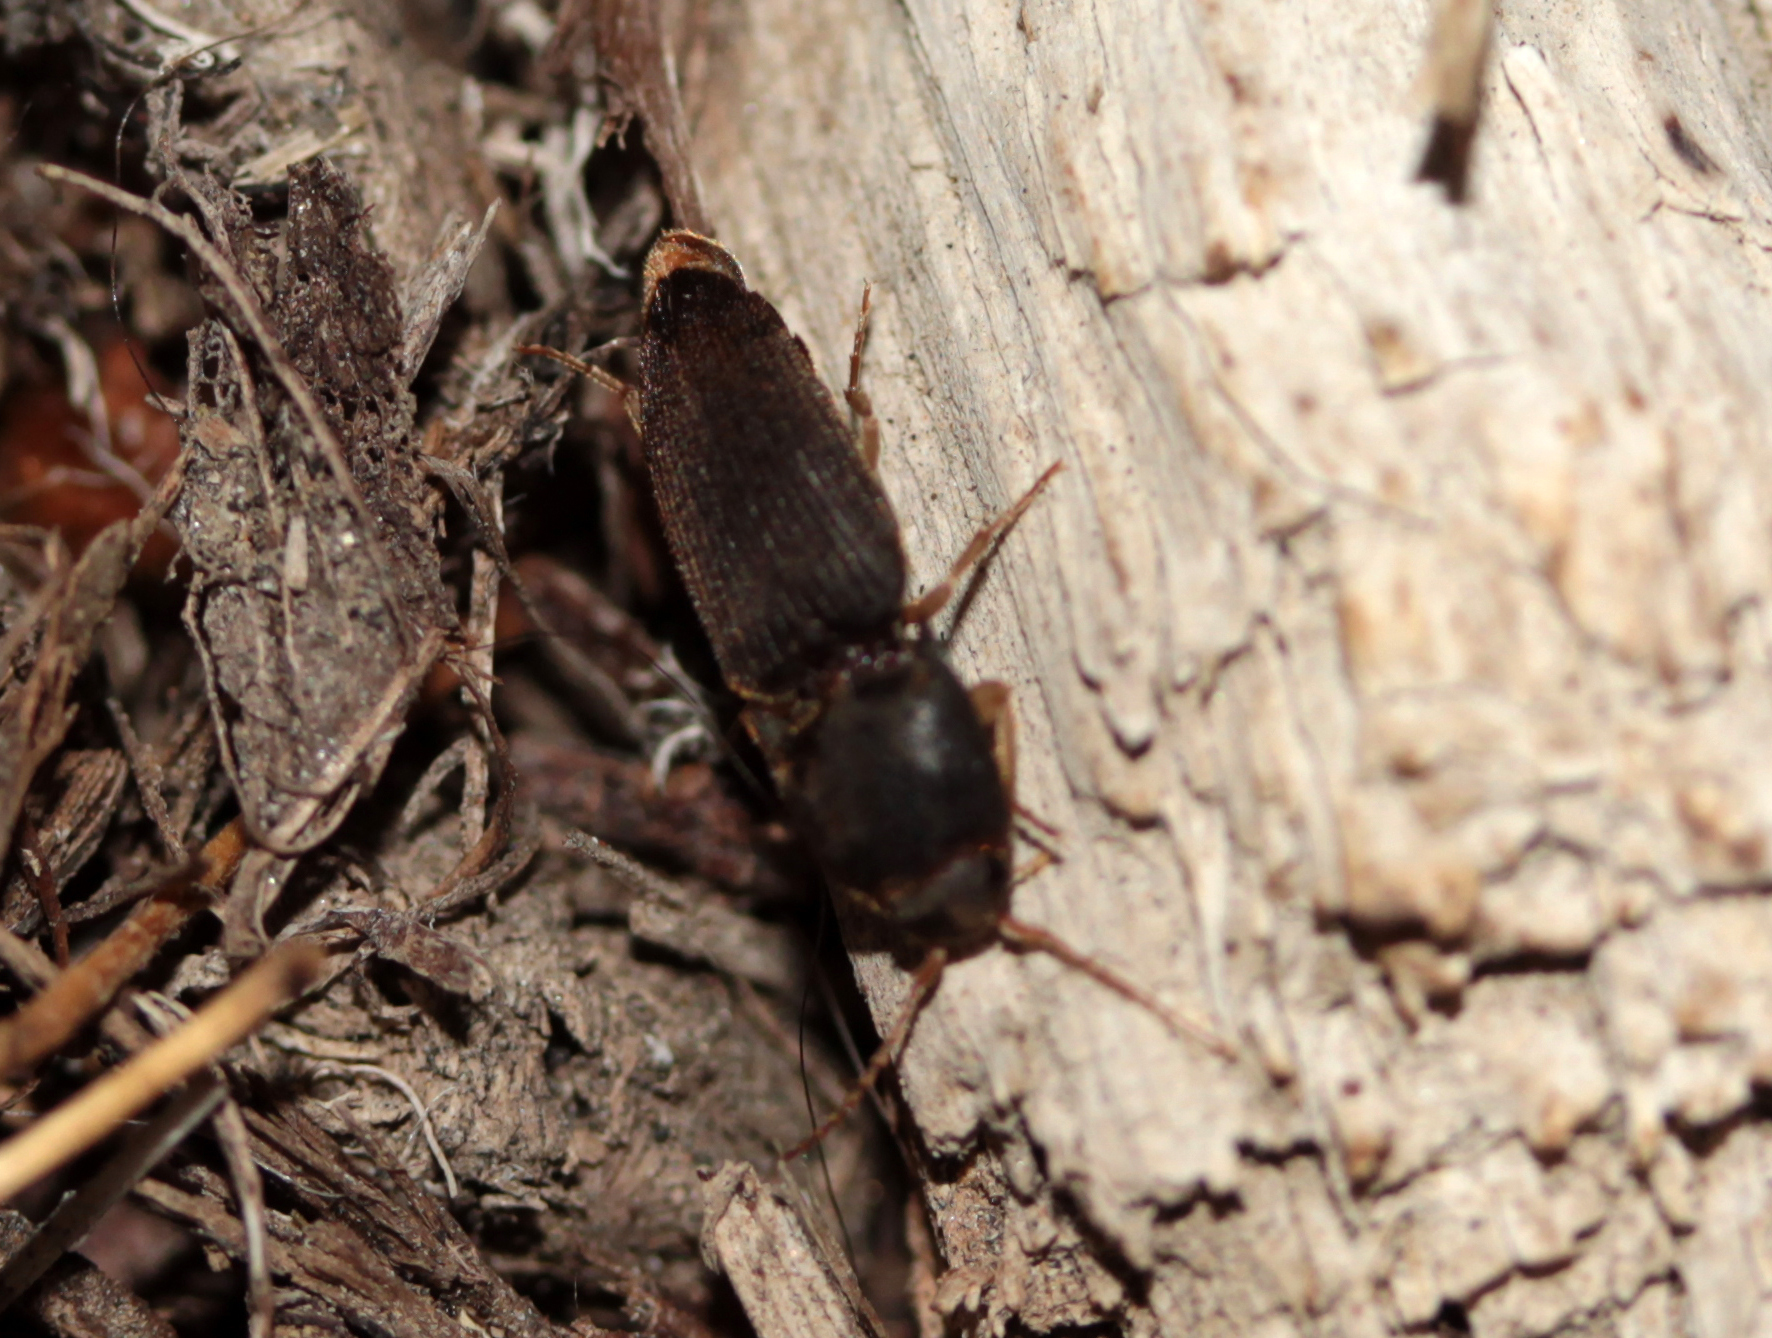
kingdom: Animalia
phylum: Arthropoda
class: Insecta
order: Coleoptera
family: Elateridae
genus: Heteroderes
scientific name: Heteroderes amplicollis
